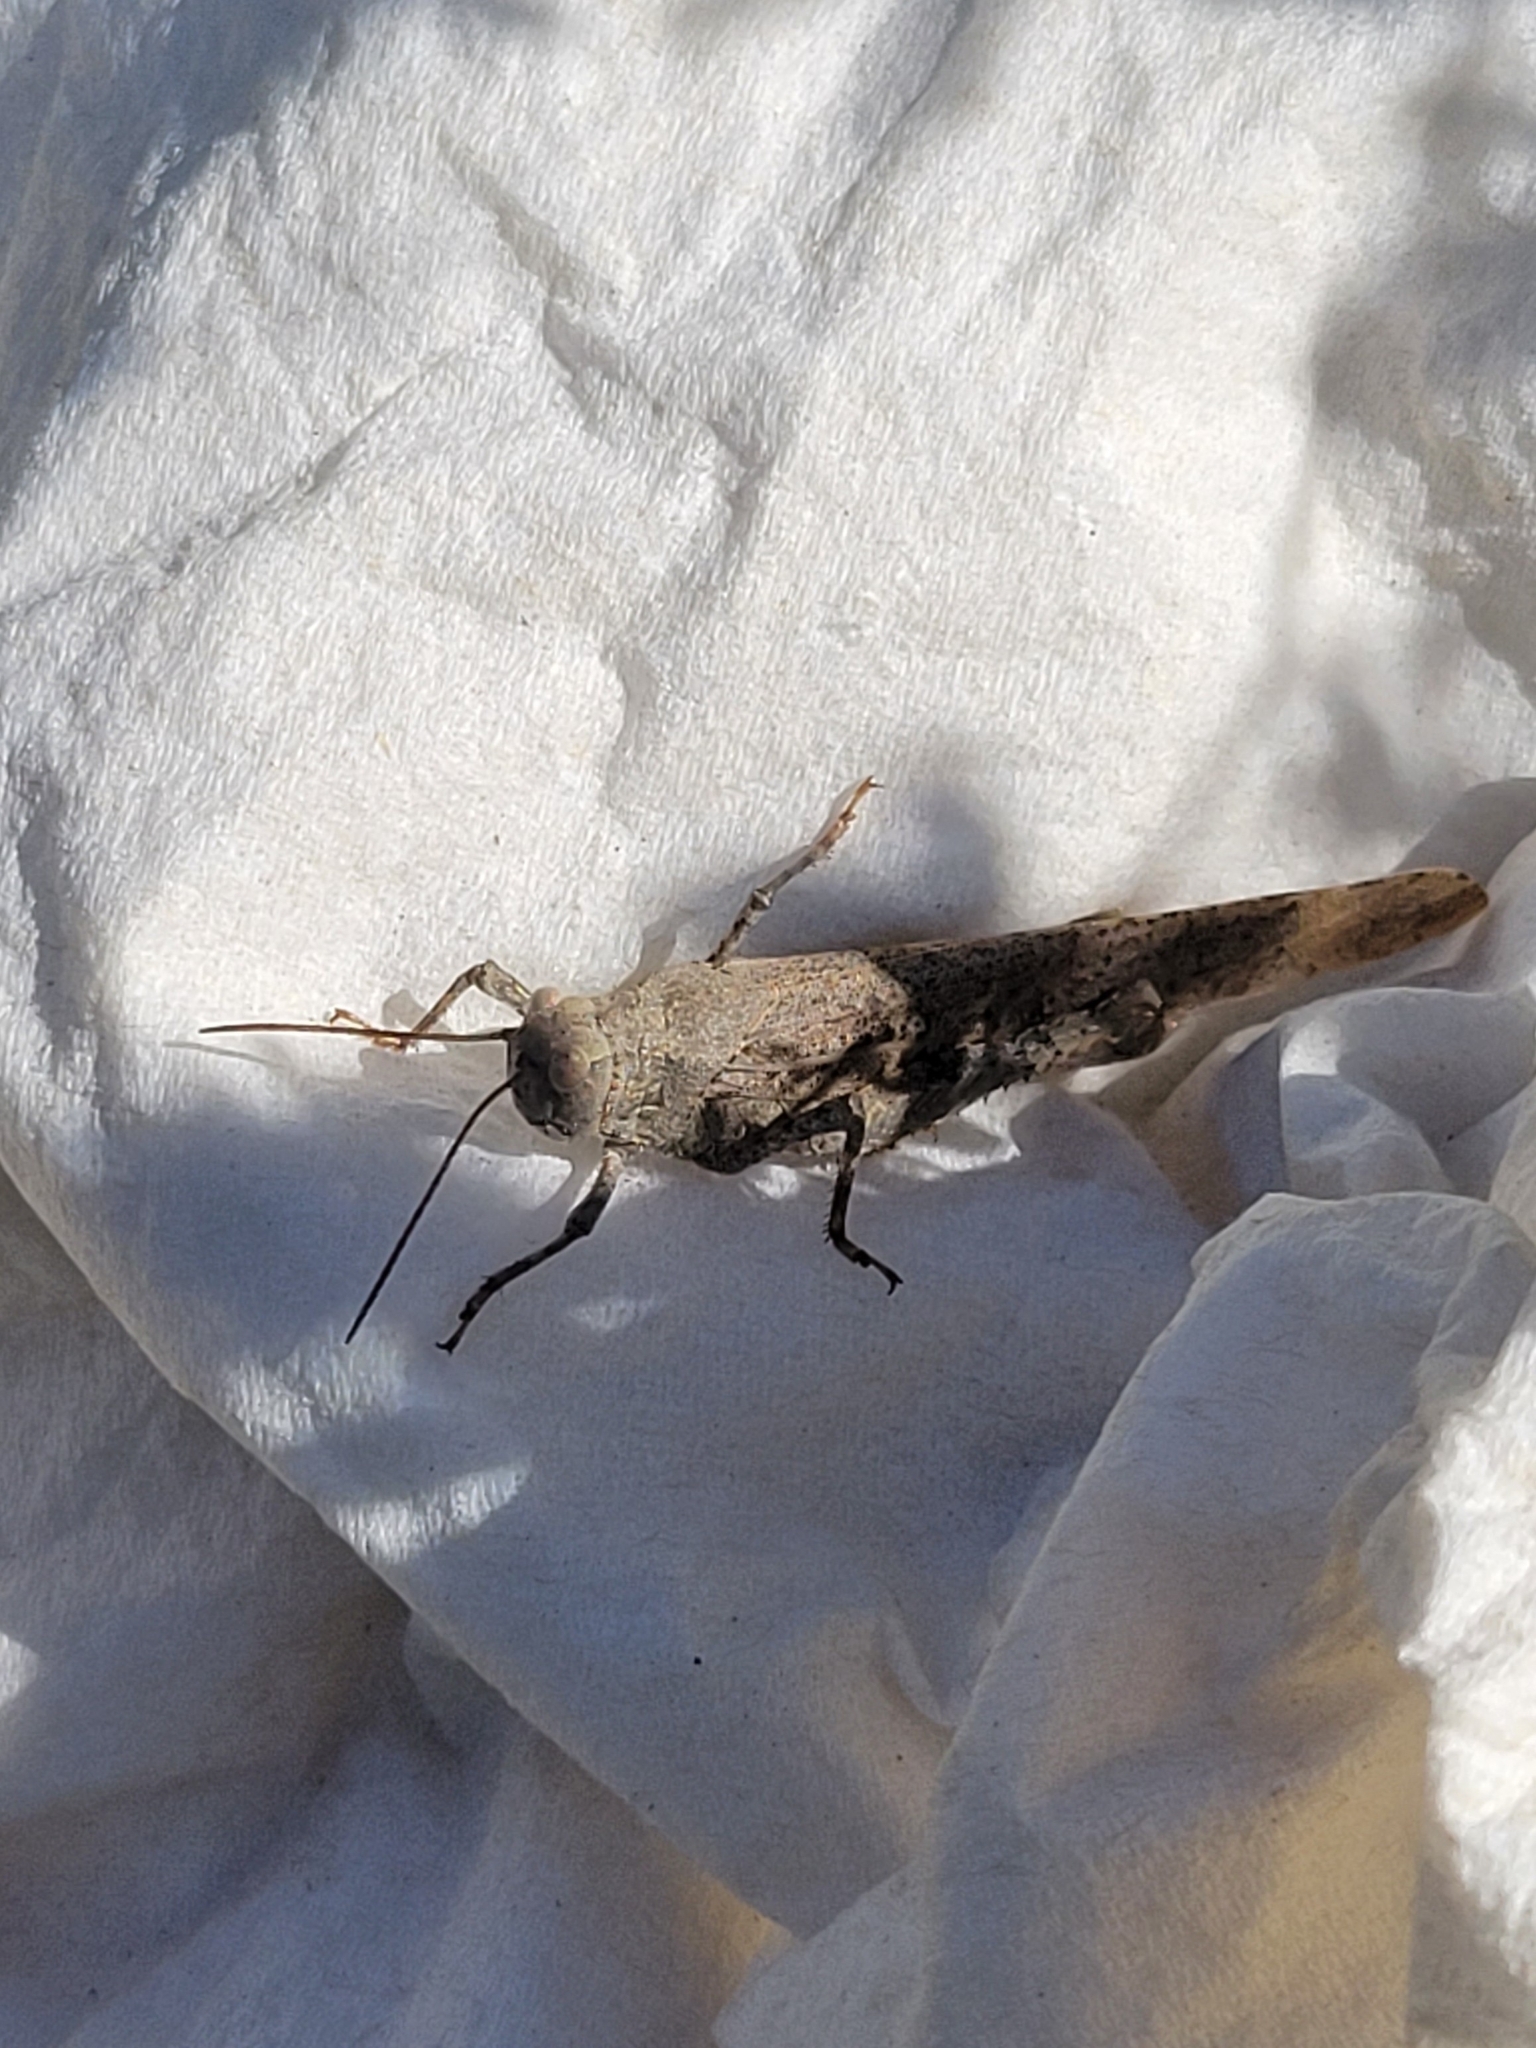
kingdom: Animalia
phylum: Arthropoda
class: Insecta
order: Orthoptera
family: Acrididae
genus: Dissosteira
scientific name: Dissosteira carolina
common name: Carolina grasshopper
